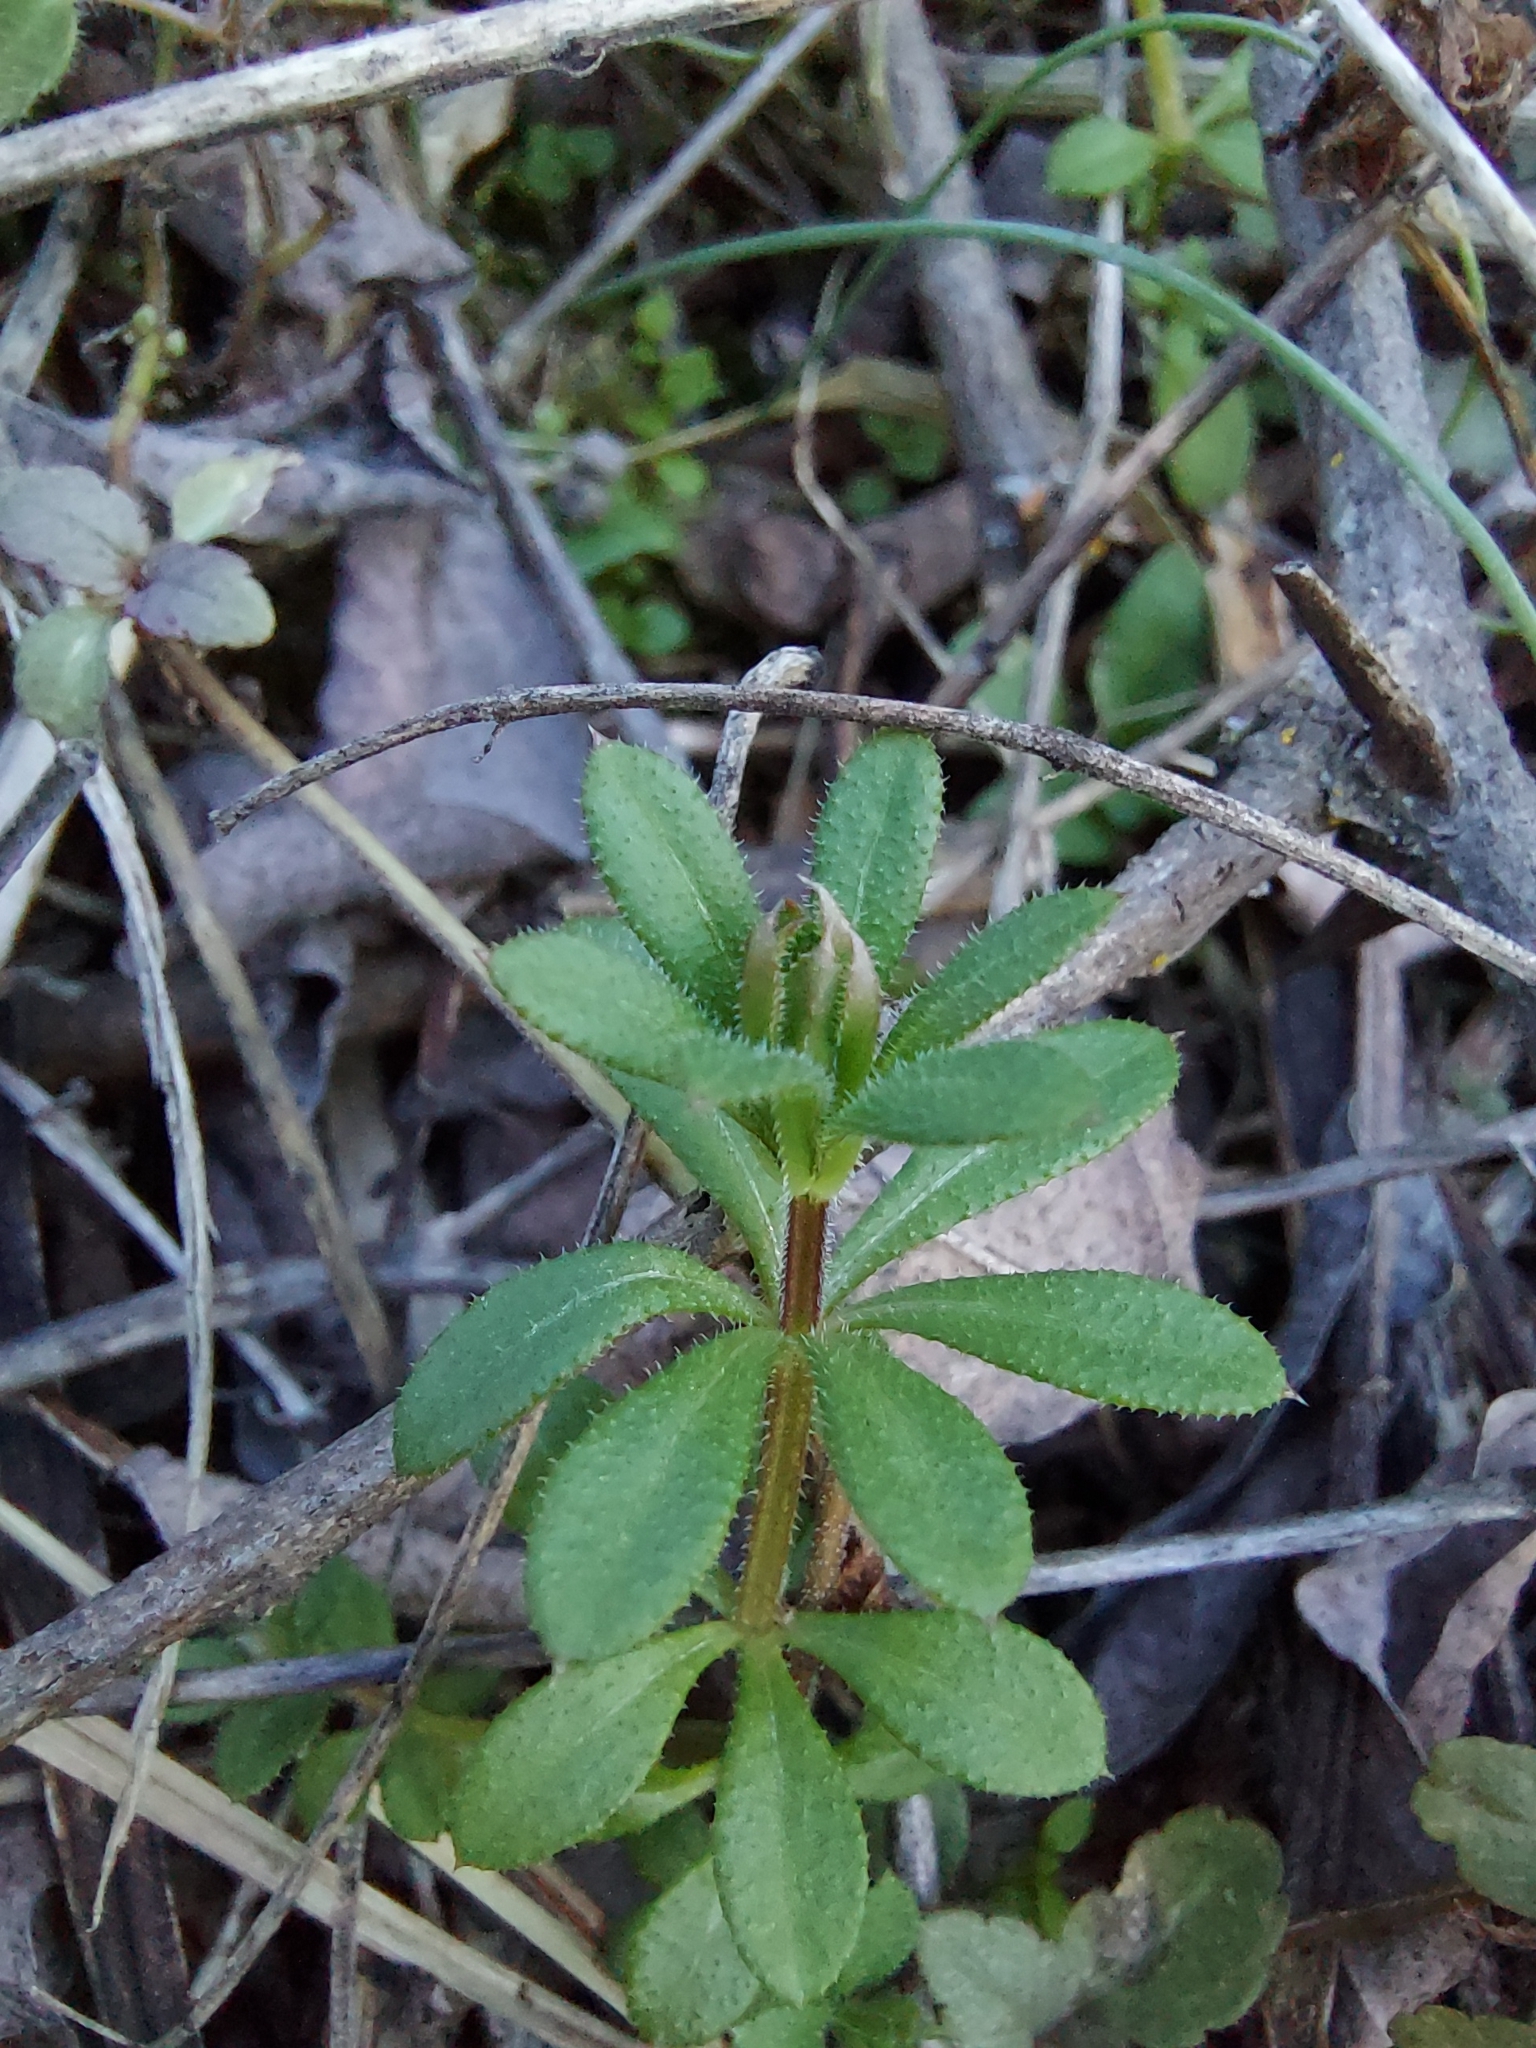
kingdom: Plantae
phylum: Tracheophyta
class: Magnoliopsida
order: Gentianales
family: Rubiaceae
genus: Galium
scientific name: Galium aparine
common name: Cleavers
